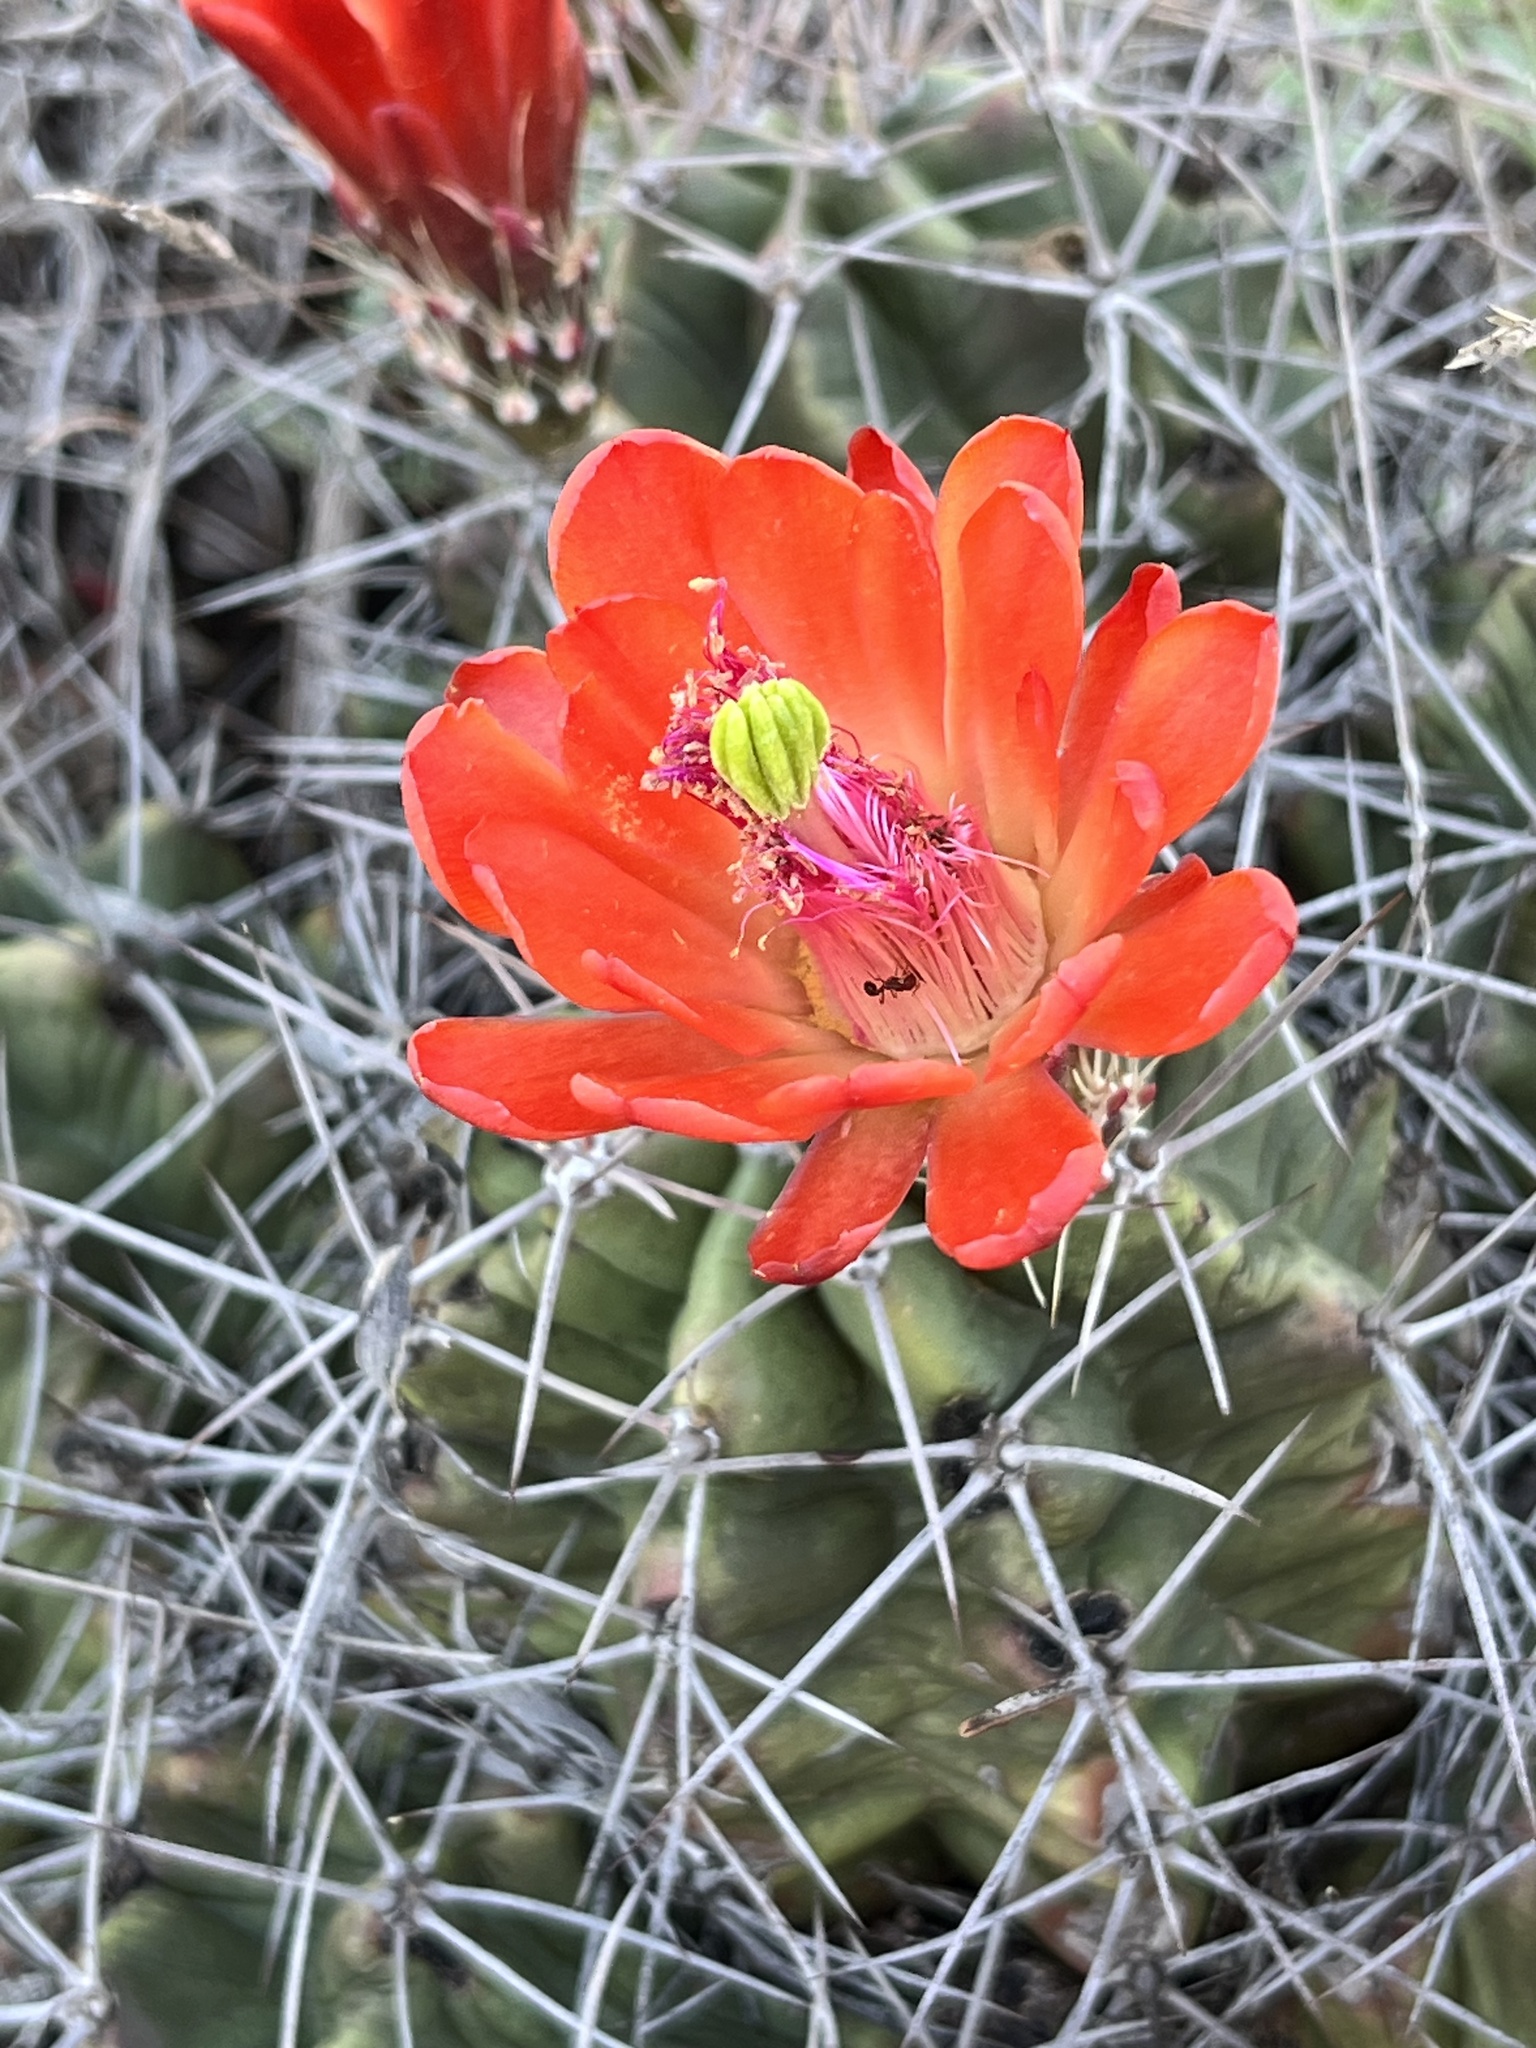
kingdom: Plantae
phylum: Tracheophyta
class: Magnoliopsida
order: Caryophyllales
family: Cactaceae
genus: Echinocereus
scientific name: Echinocereus coccineus
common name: Scarlet hedgehog cactus
